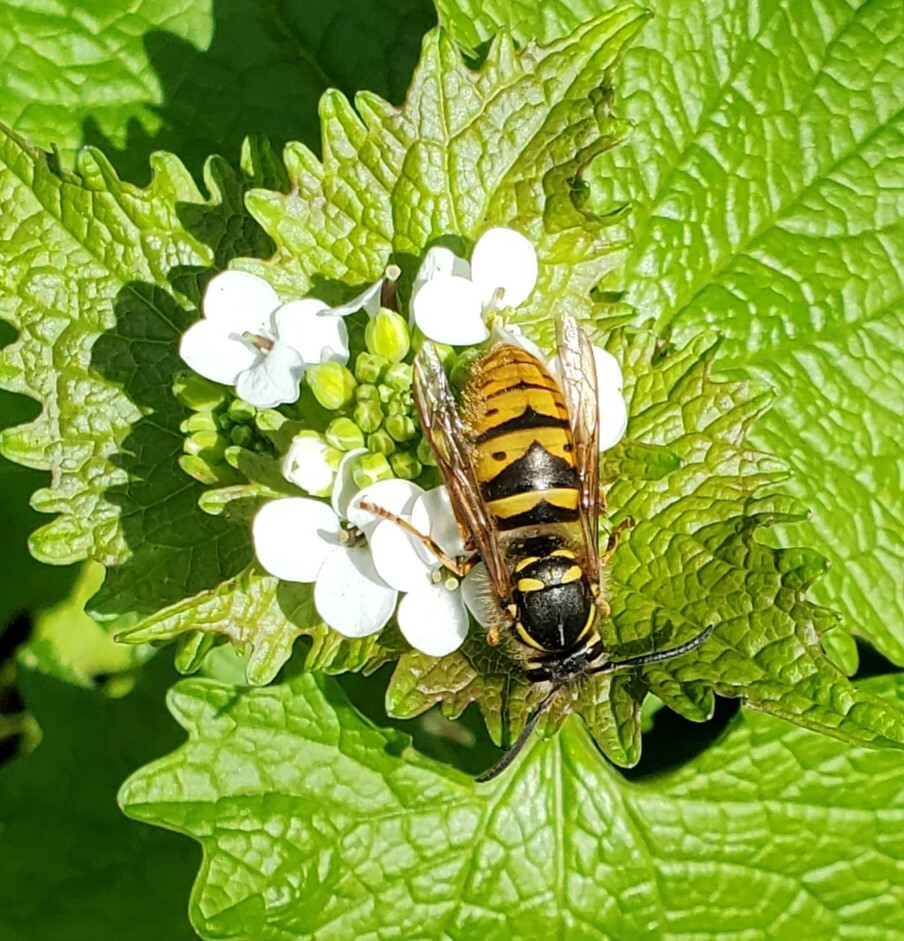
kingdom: Animalia
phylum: Arthropoda
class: Insecta
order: Hymenoptera
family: Vespidae
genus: Vespula
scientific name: Vespula vulgaris
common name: Common wasp
